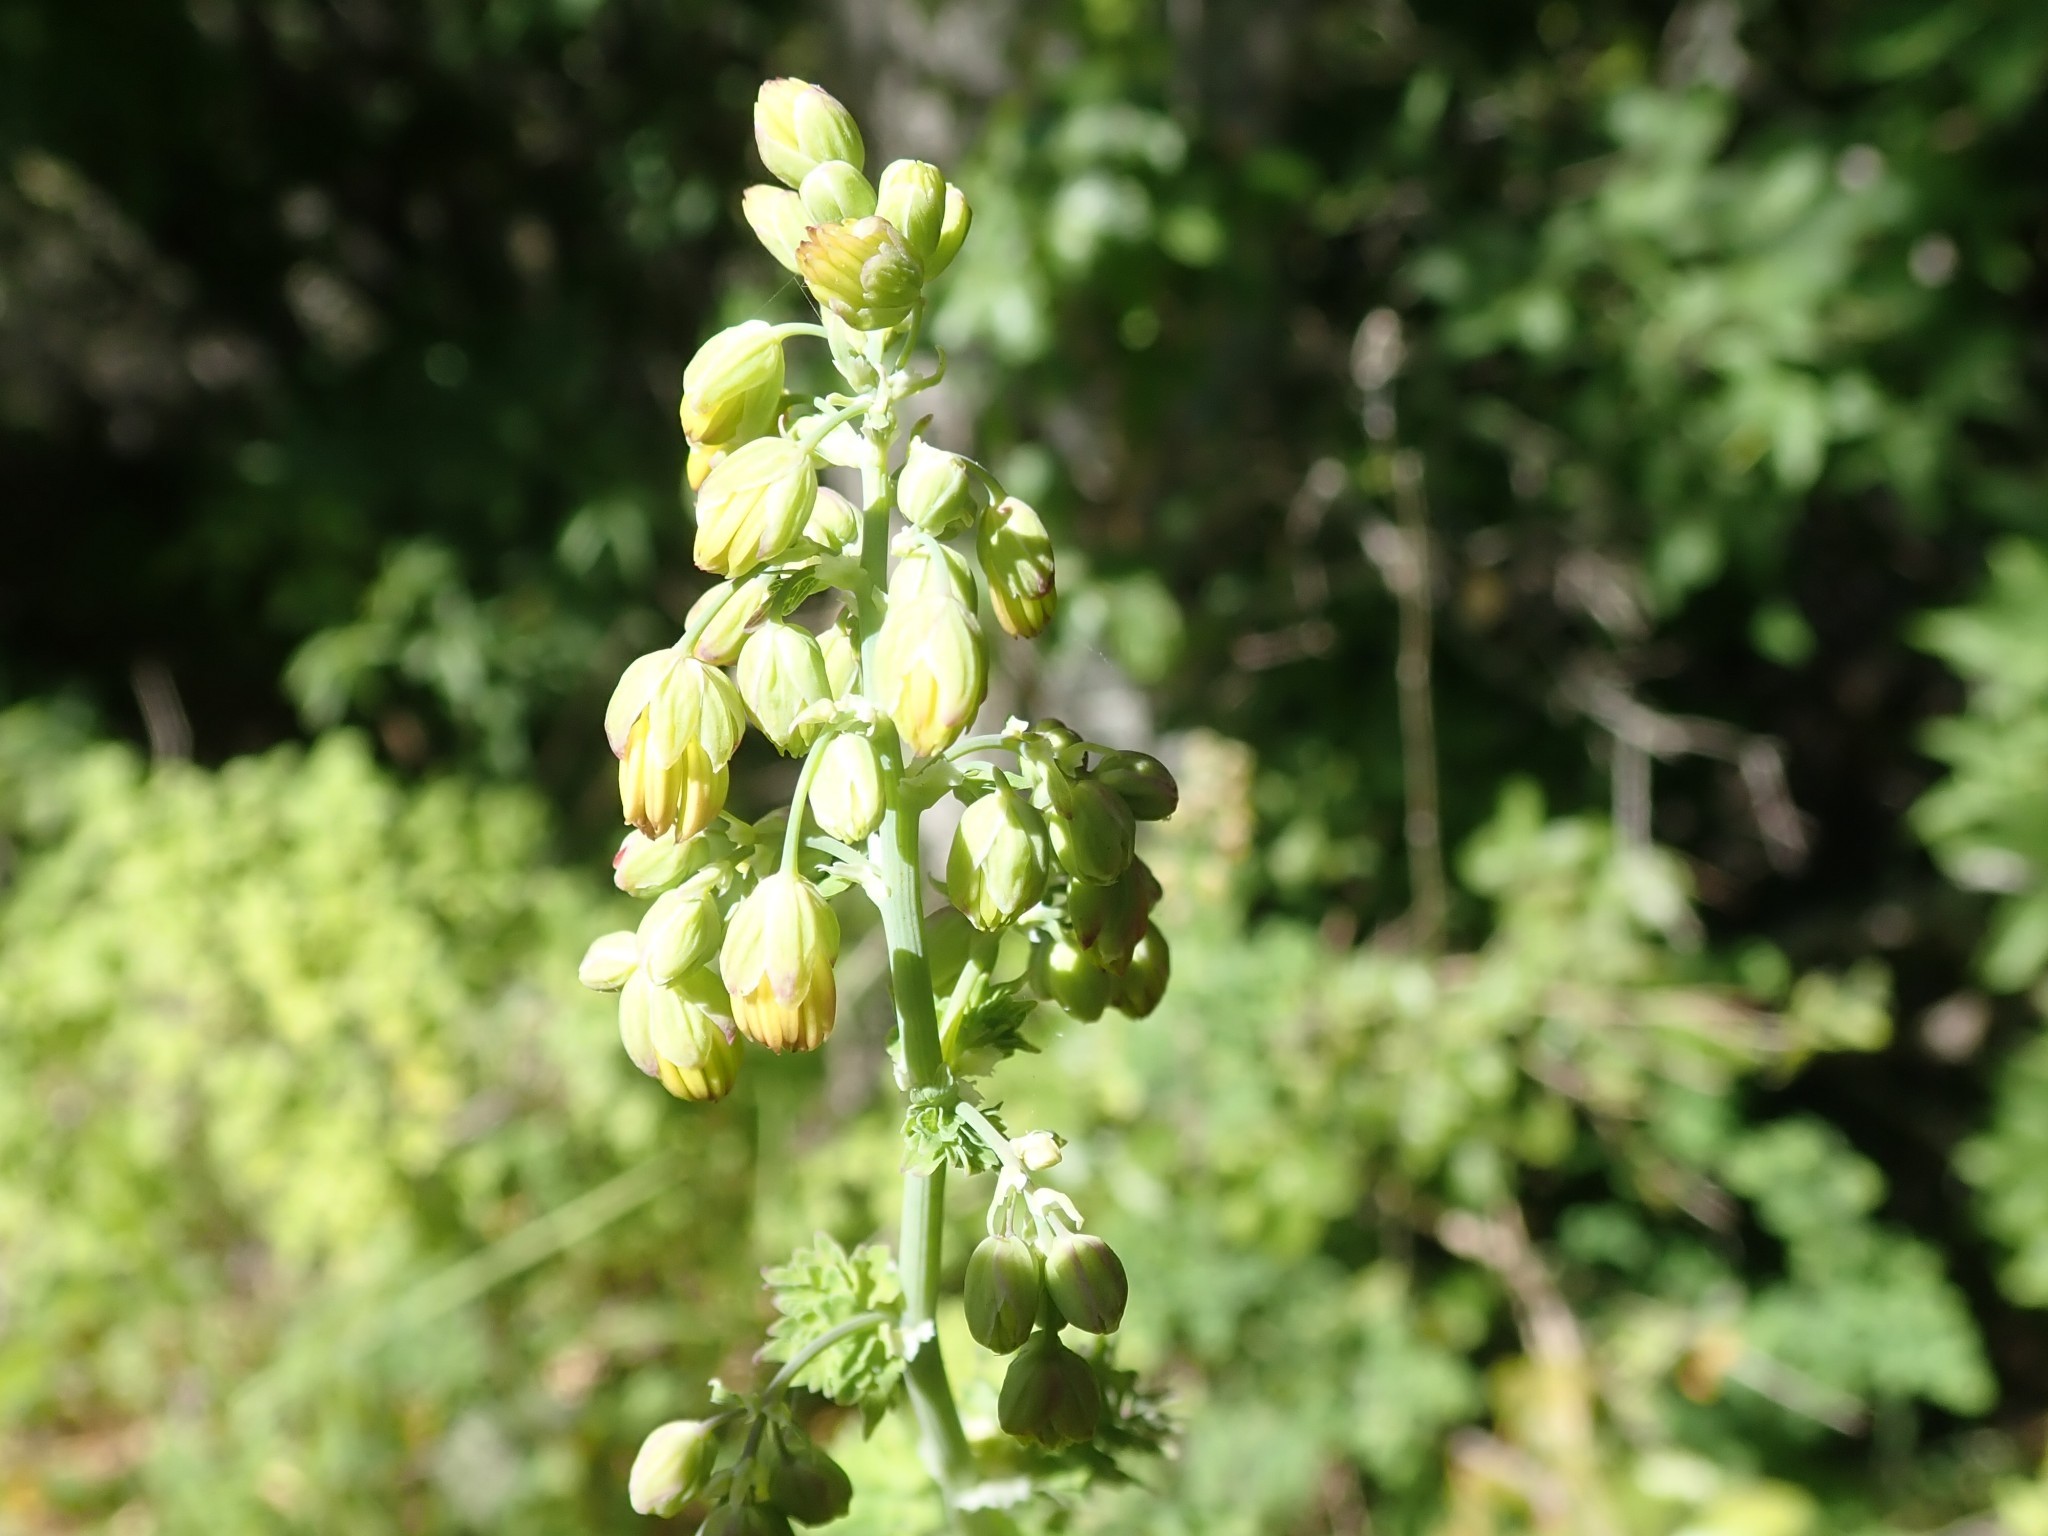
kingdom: Plantae
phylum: Tracheophyta
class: Magnoliopsida
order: Ranunculales
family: Ranunculaceae
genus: Thalictrum
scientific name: Thalictrum fendleri
